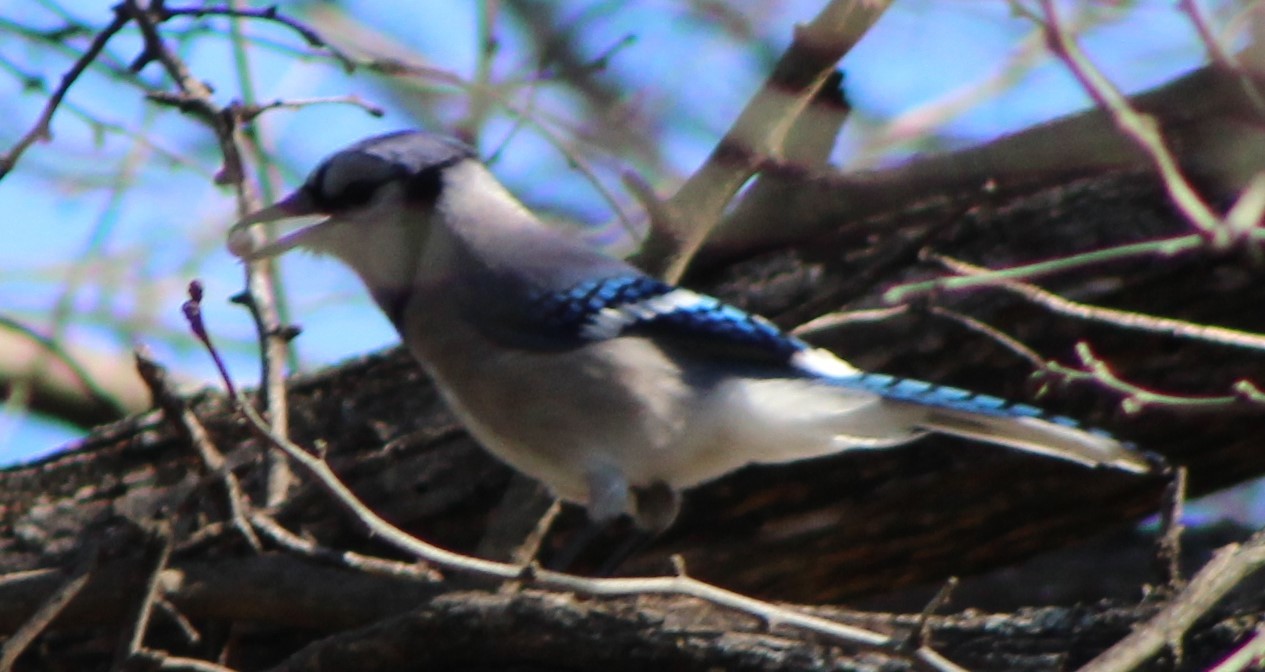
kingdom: Animalia
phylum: Chordata
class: Aves
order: Passeriformes
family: Corvidae
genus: Cyanocitta
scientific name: Cyanocitta cristata
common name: Blue jay
